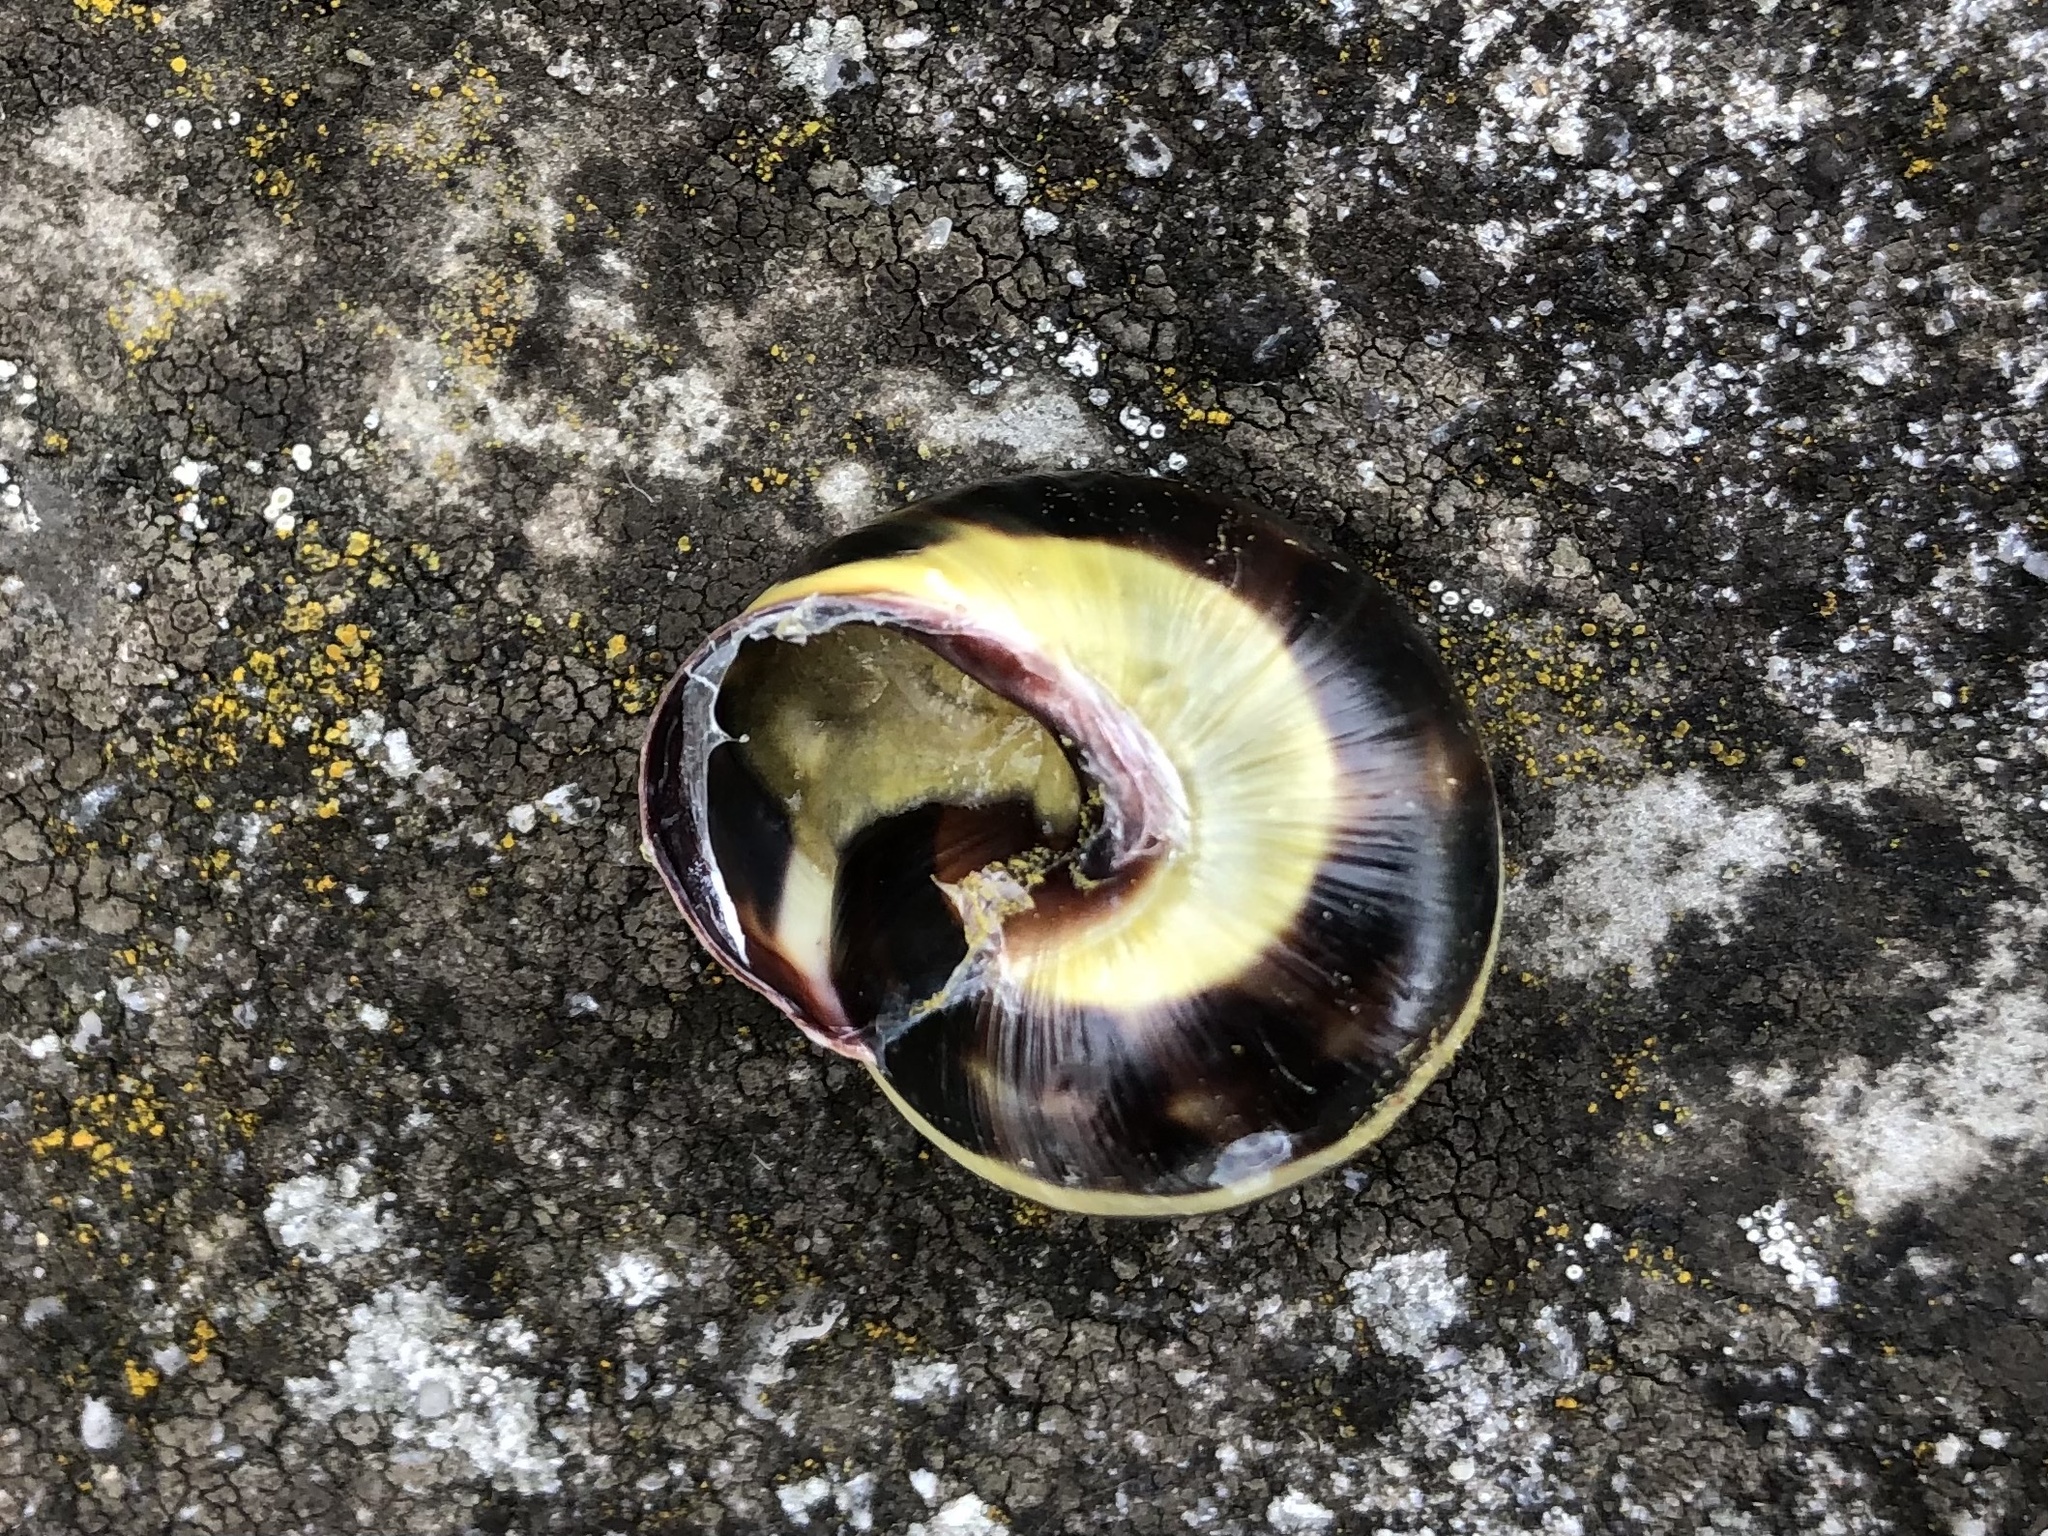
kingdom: Animalia
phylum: Mollusca
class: Gastropoda
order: Stylommatophora
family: Helicidae
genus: Cepaea
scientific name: Cepaea nemoralis
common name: Grovesnail
